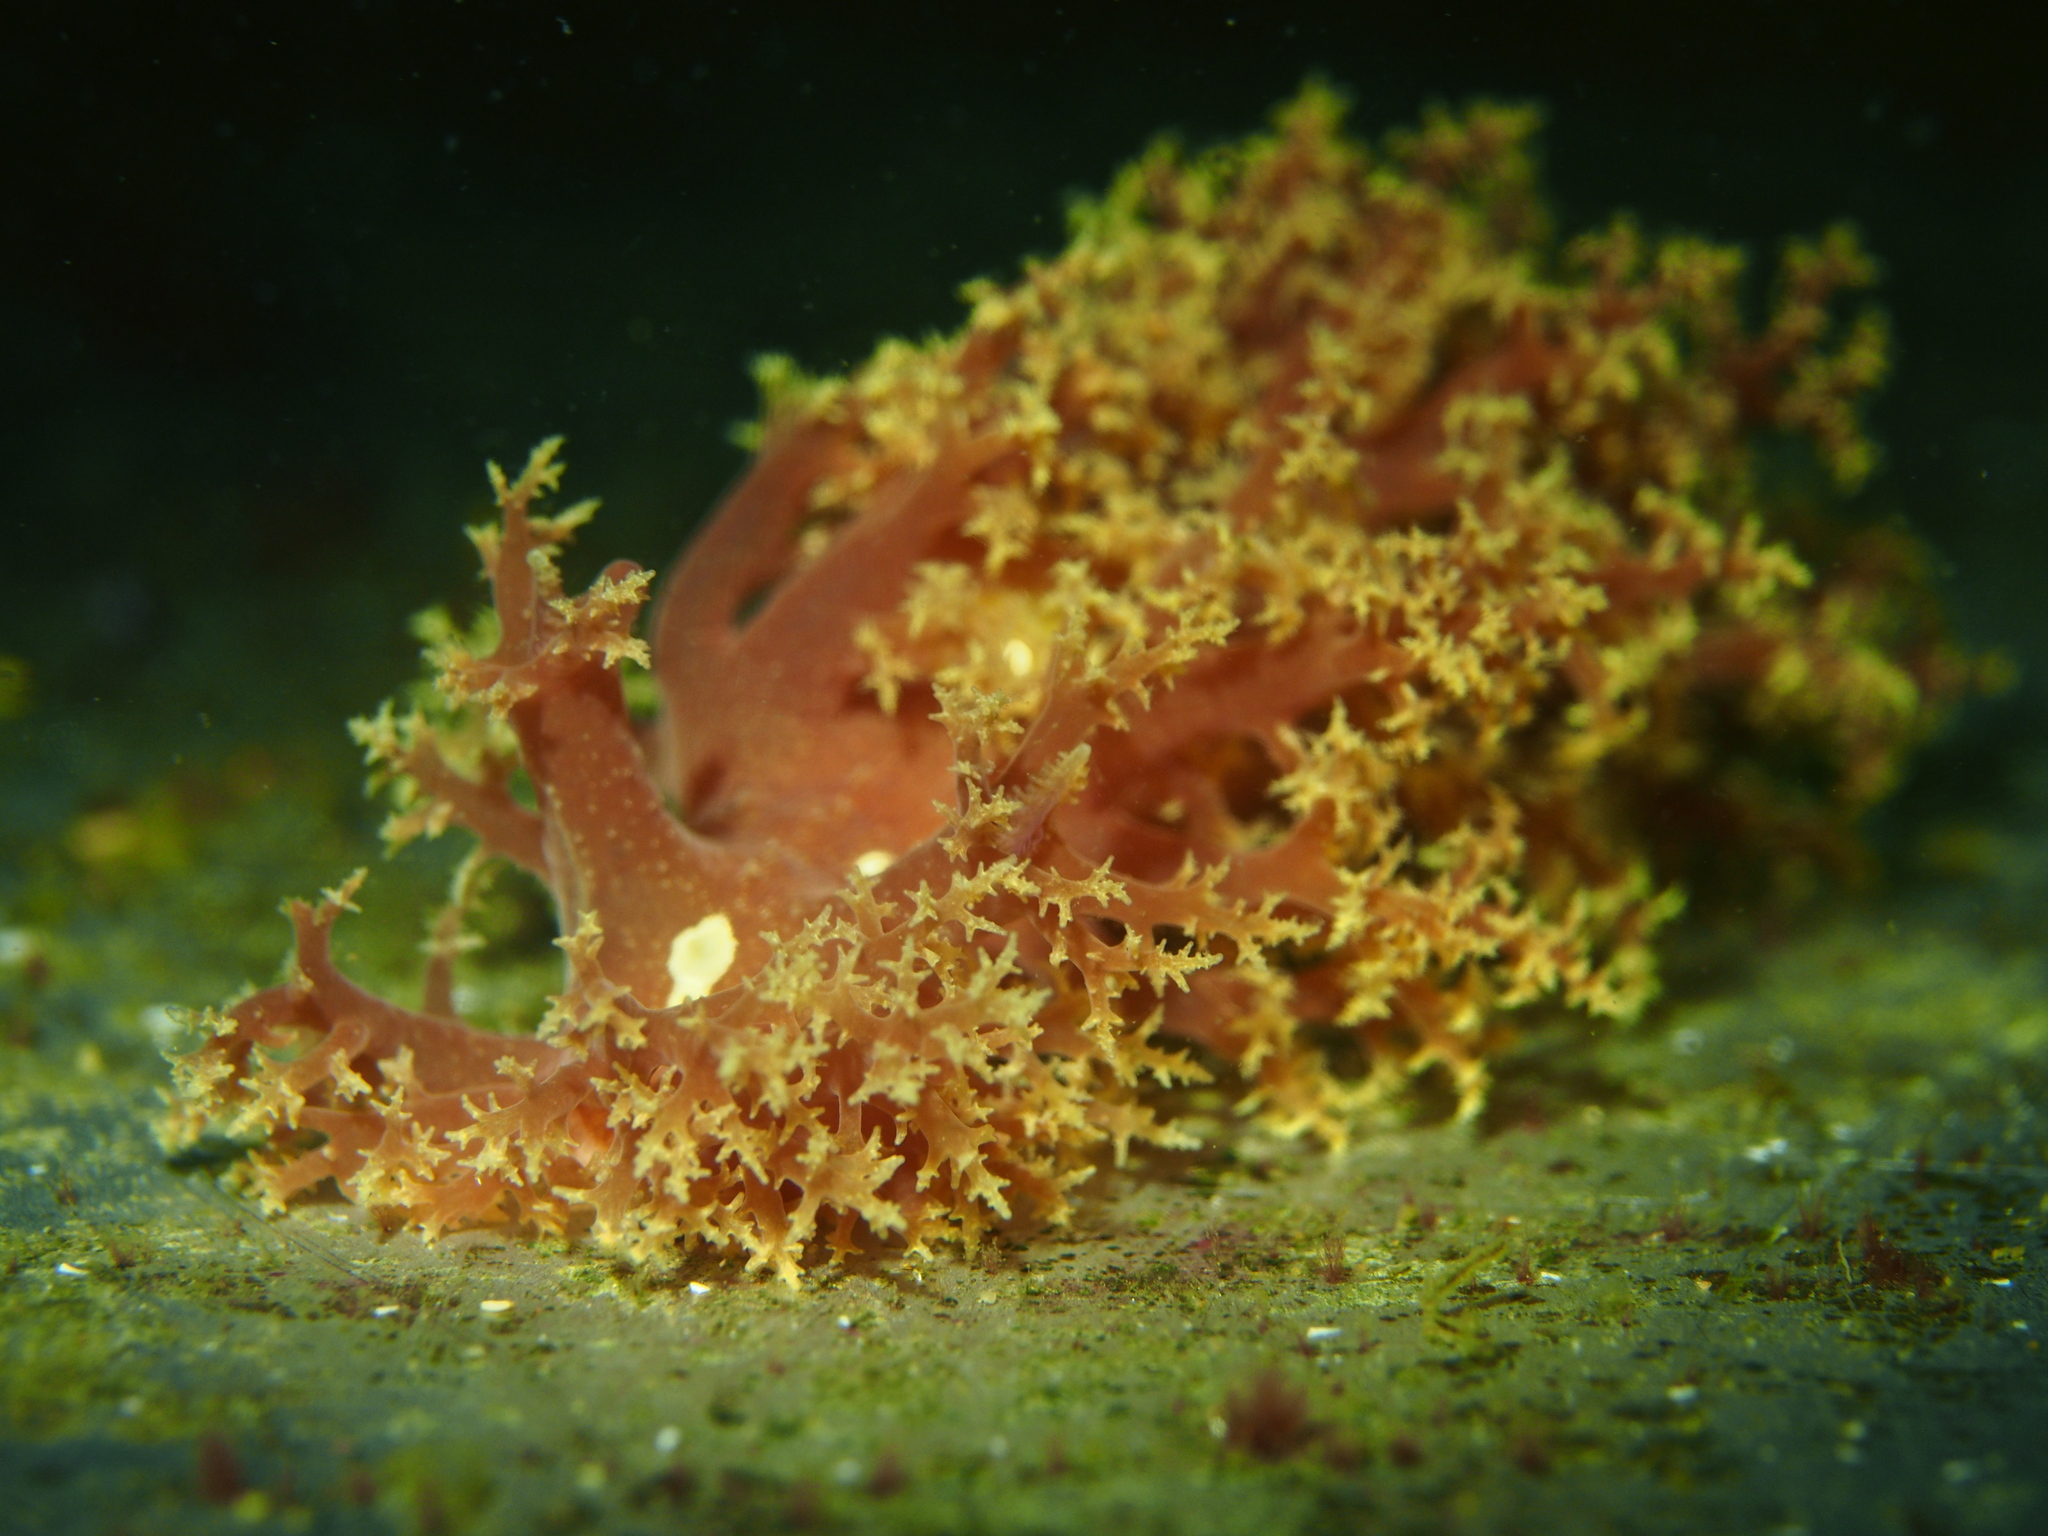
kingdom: Animalia
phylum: Mollusca
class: Gastropoda
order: Nudibranchia
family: Dendronotidae
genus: Dendronotus
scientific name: Dendronotus lacteus
